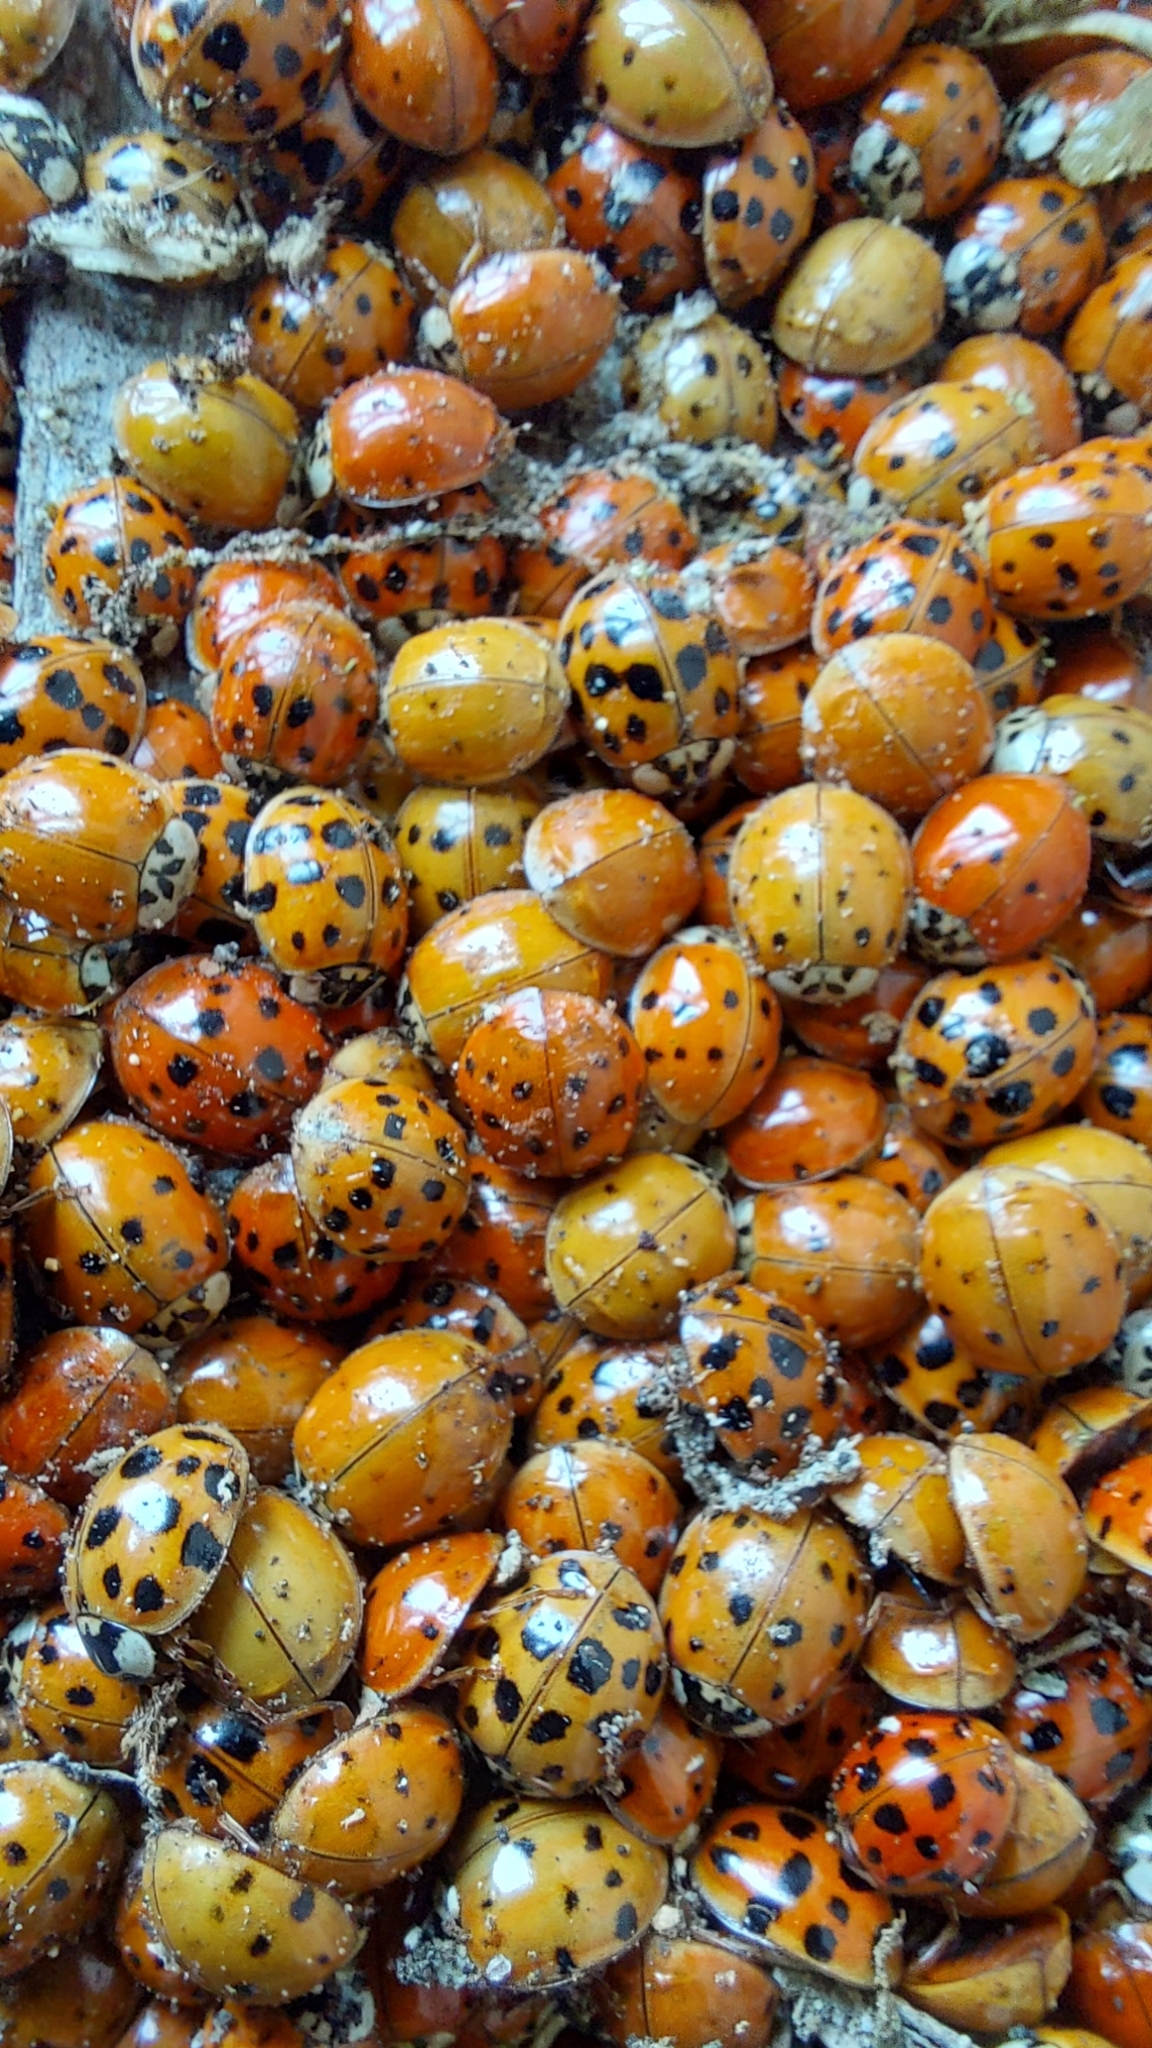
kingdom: Animalia
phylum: Arthropoda
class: Insecta
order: Coleoptera
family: Coccinellidae
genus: Harmonia
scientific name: Harmonia axyridis
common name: Harlequin ladybird
